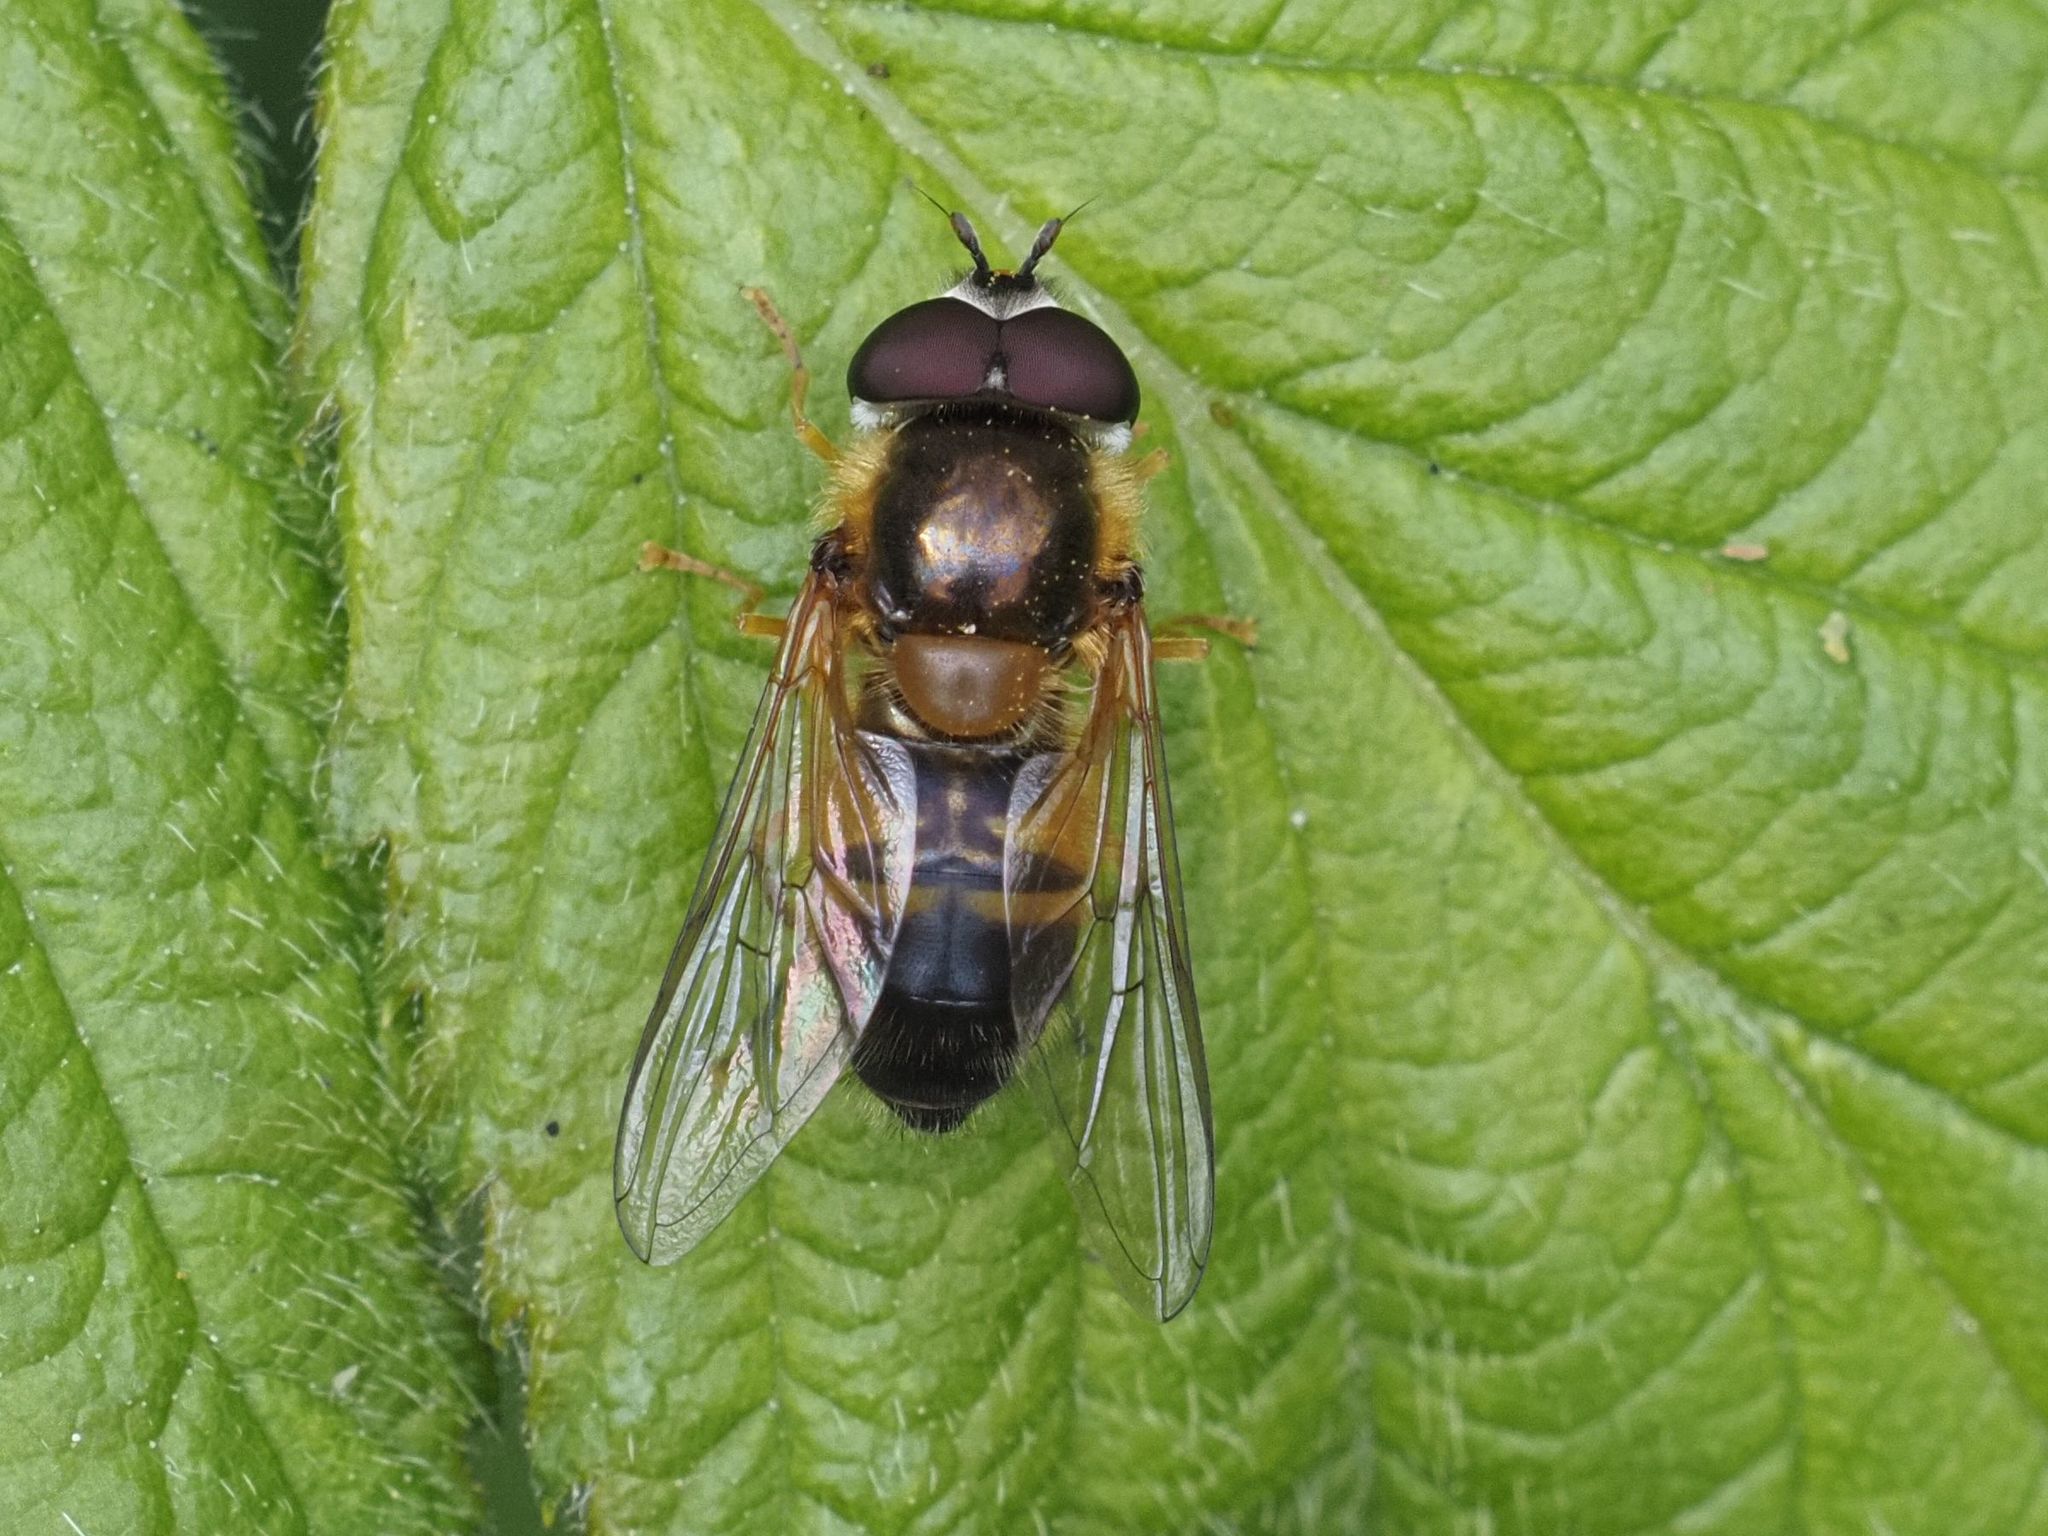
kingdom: Animalia
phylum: Arthropoda
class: Insecta
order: Diptera
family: Syrphidae
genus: Epistrophe
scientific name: Epistrophe eligans
